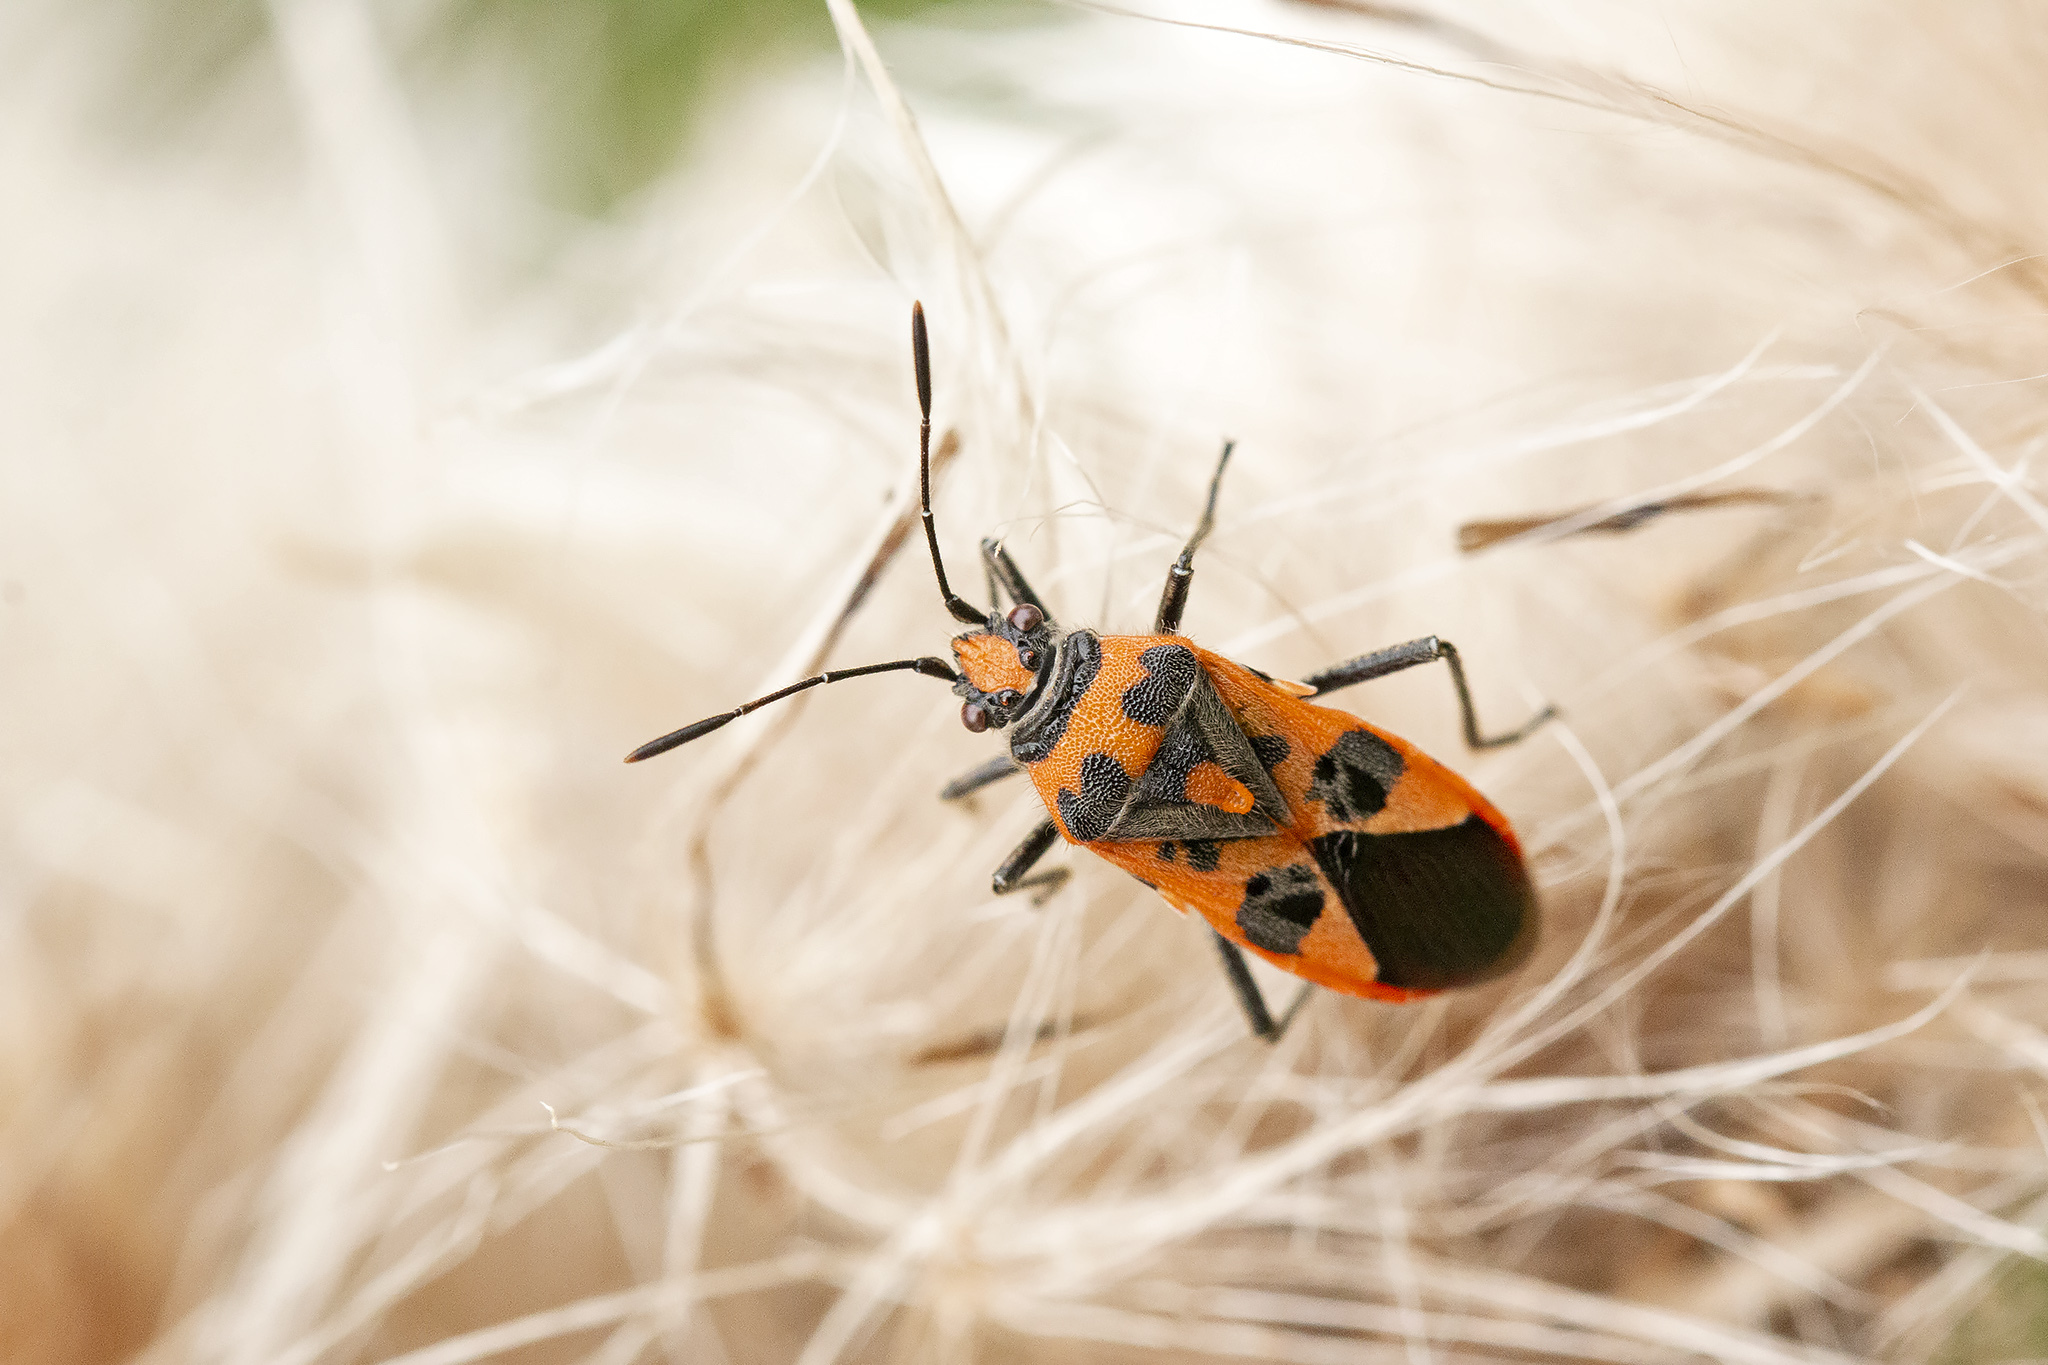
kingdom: Animalia
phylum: Arthropoda
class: Insecta
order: Hemiptera
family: Rhopalidae
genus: Corizus
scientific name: Corizus hyoscyami
